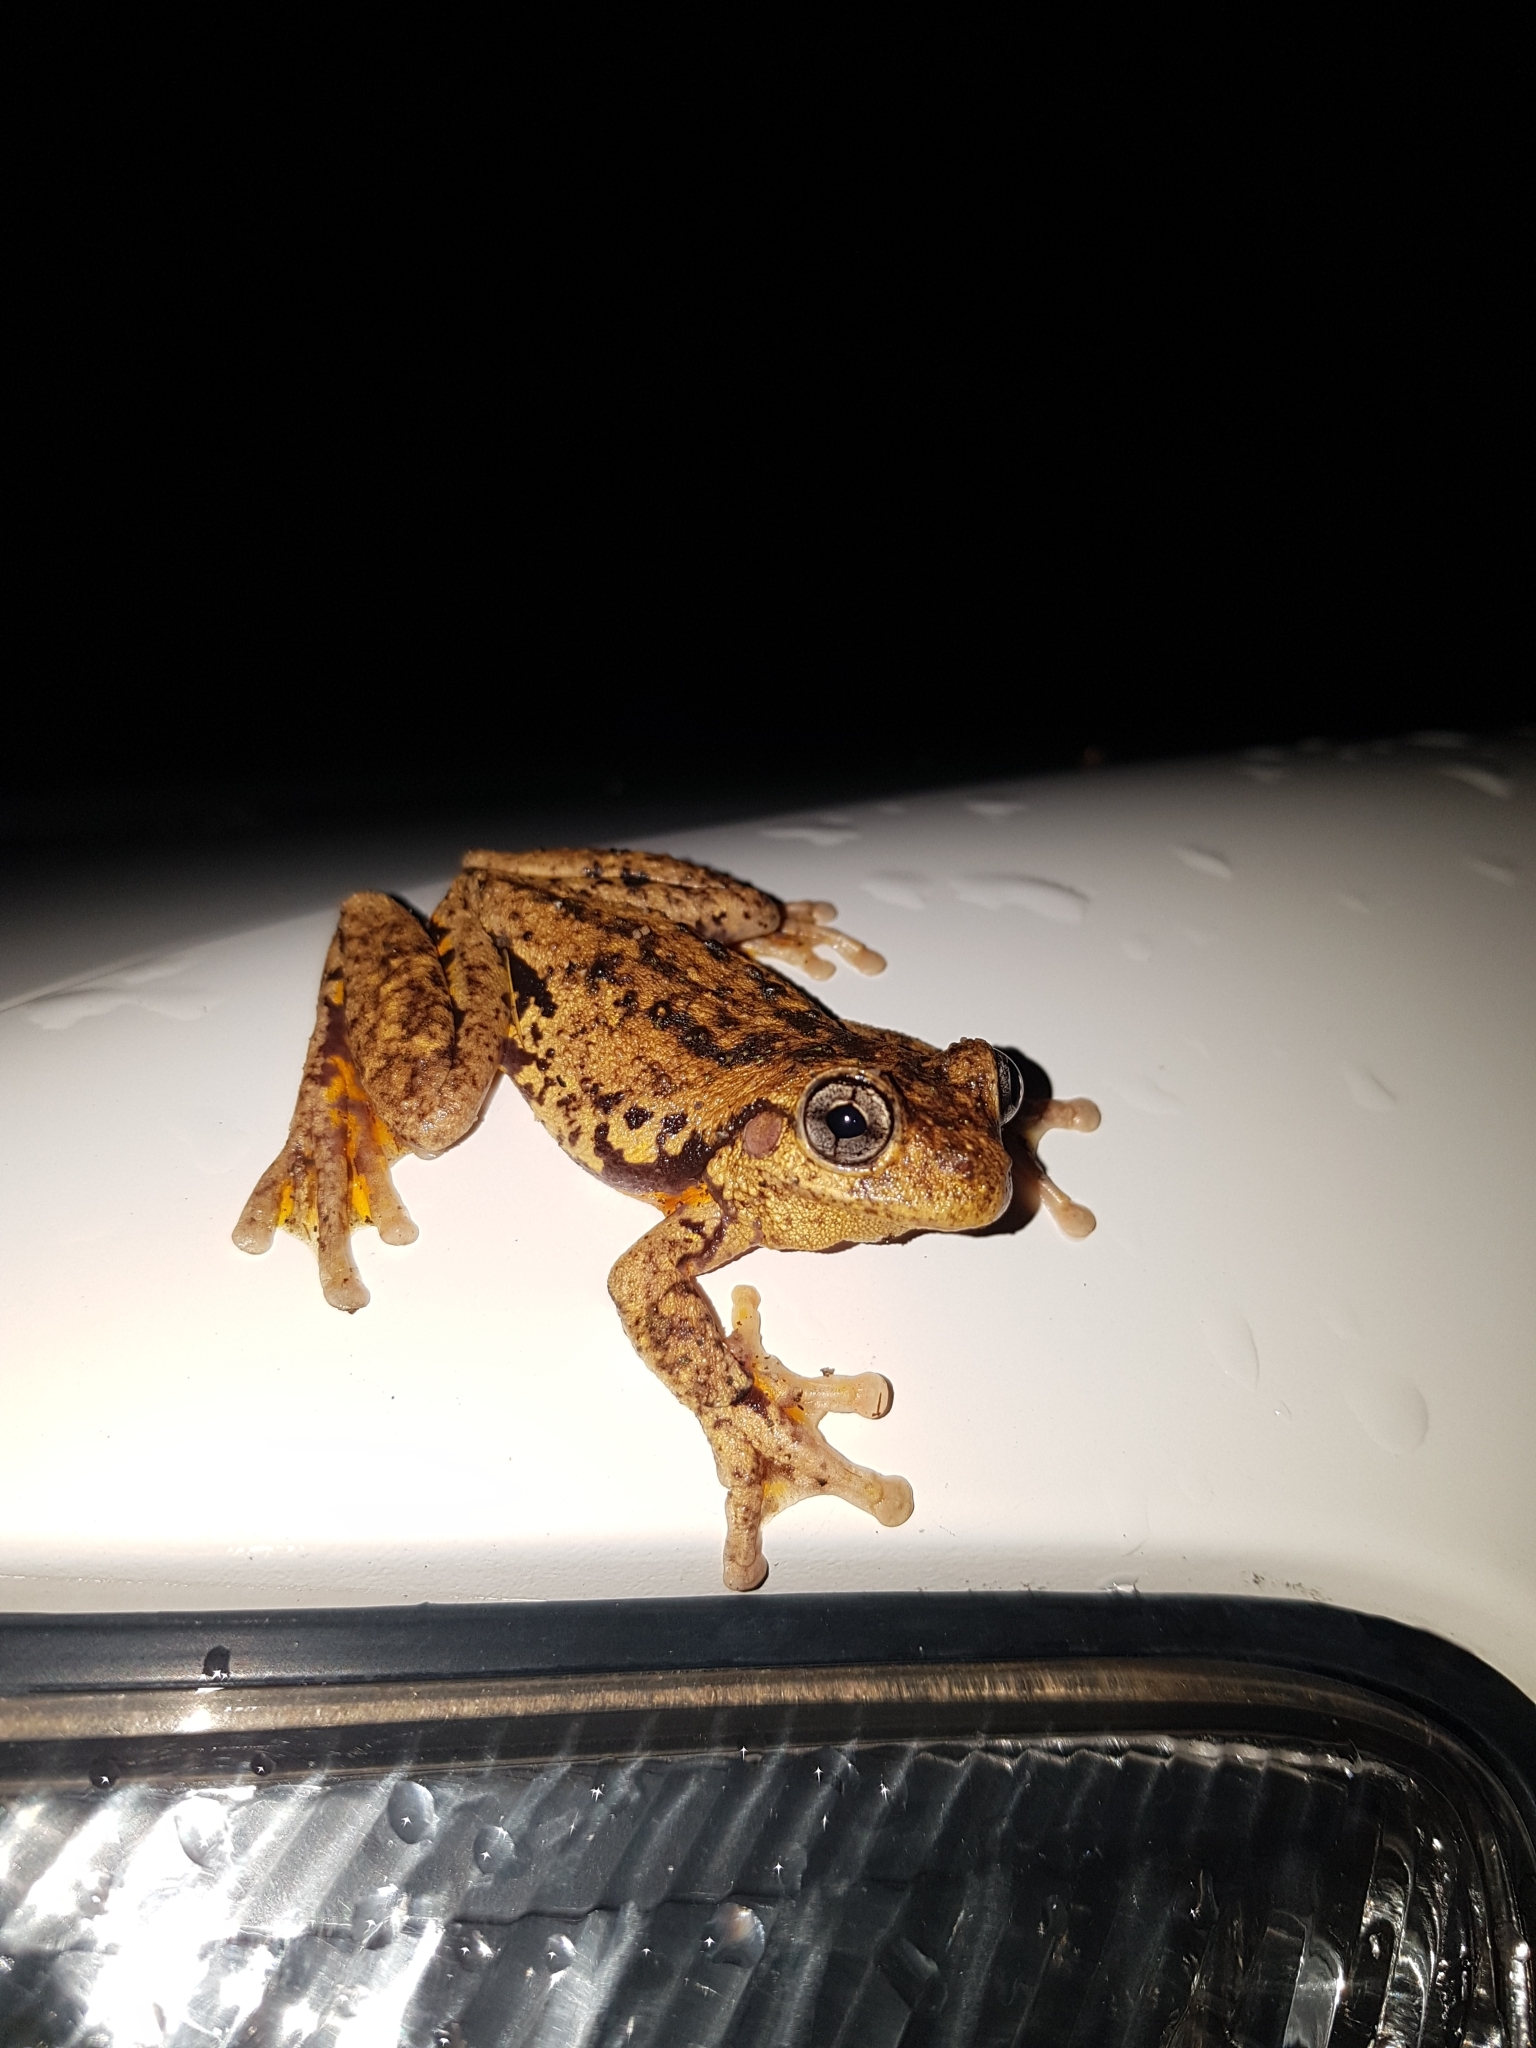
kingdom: Animalia
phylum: Chordata
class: Amphibia
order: Anura
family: Pelodryadidae
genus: Litoria
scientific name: Litoria peronii
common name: Emerald spotted treefrog
